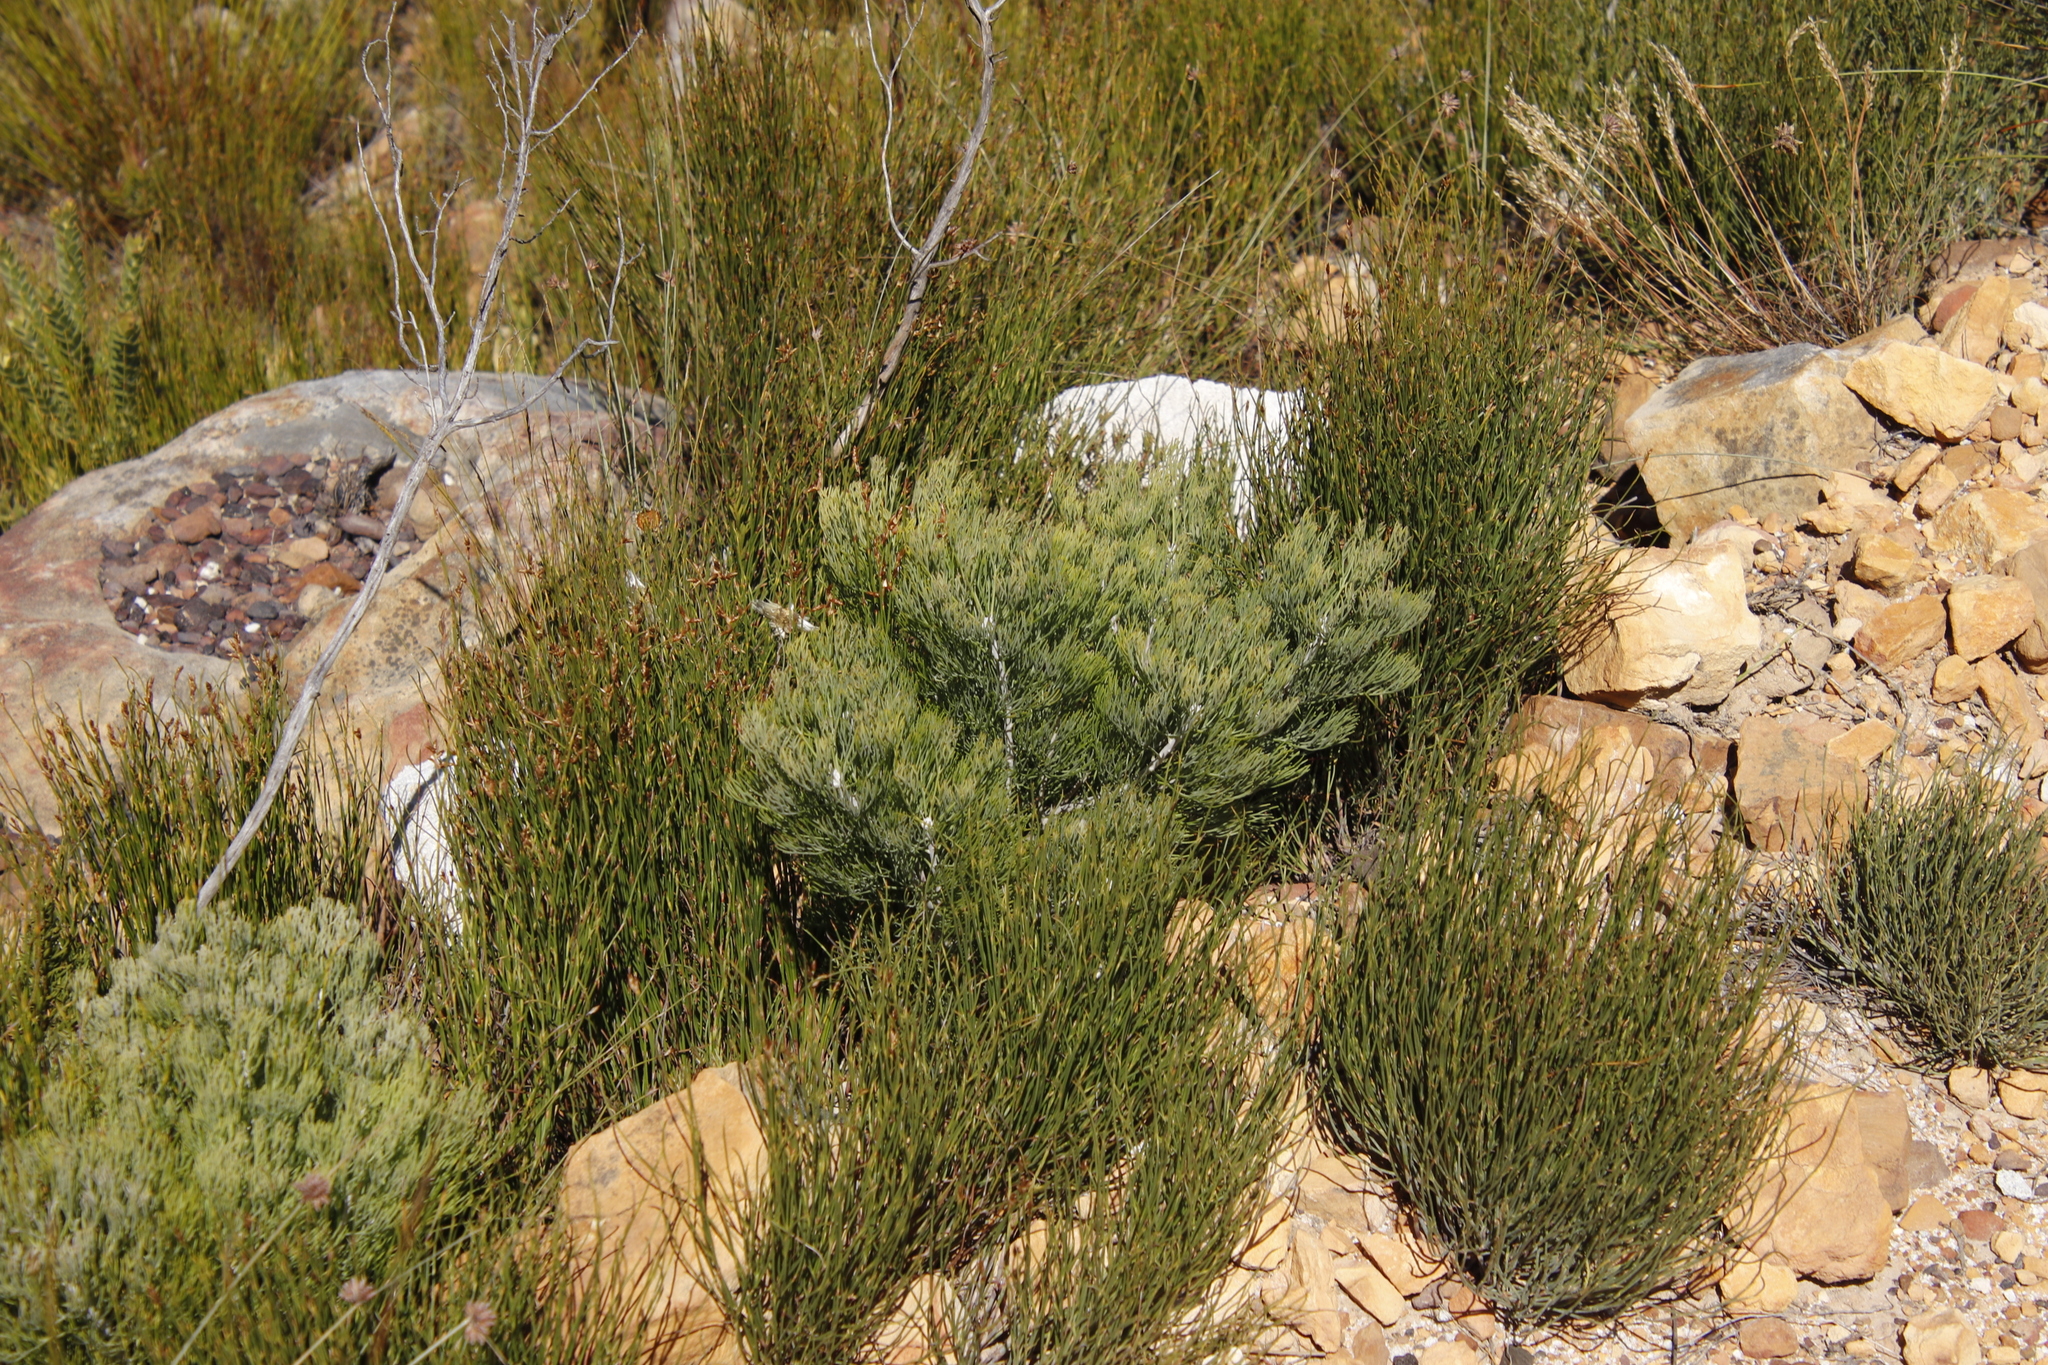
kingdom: Plantae
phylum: Tracheophyta
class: Magnoliopsida
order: Proteales
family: Proteaceae
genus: Paranomus
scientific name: Paranomus spicatus
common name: Kogelberg sceptre
